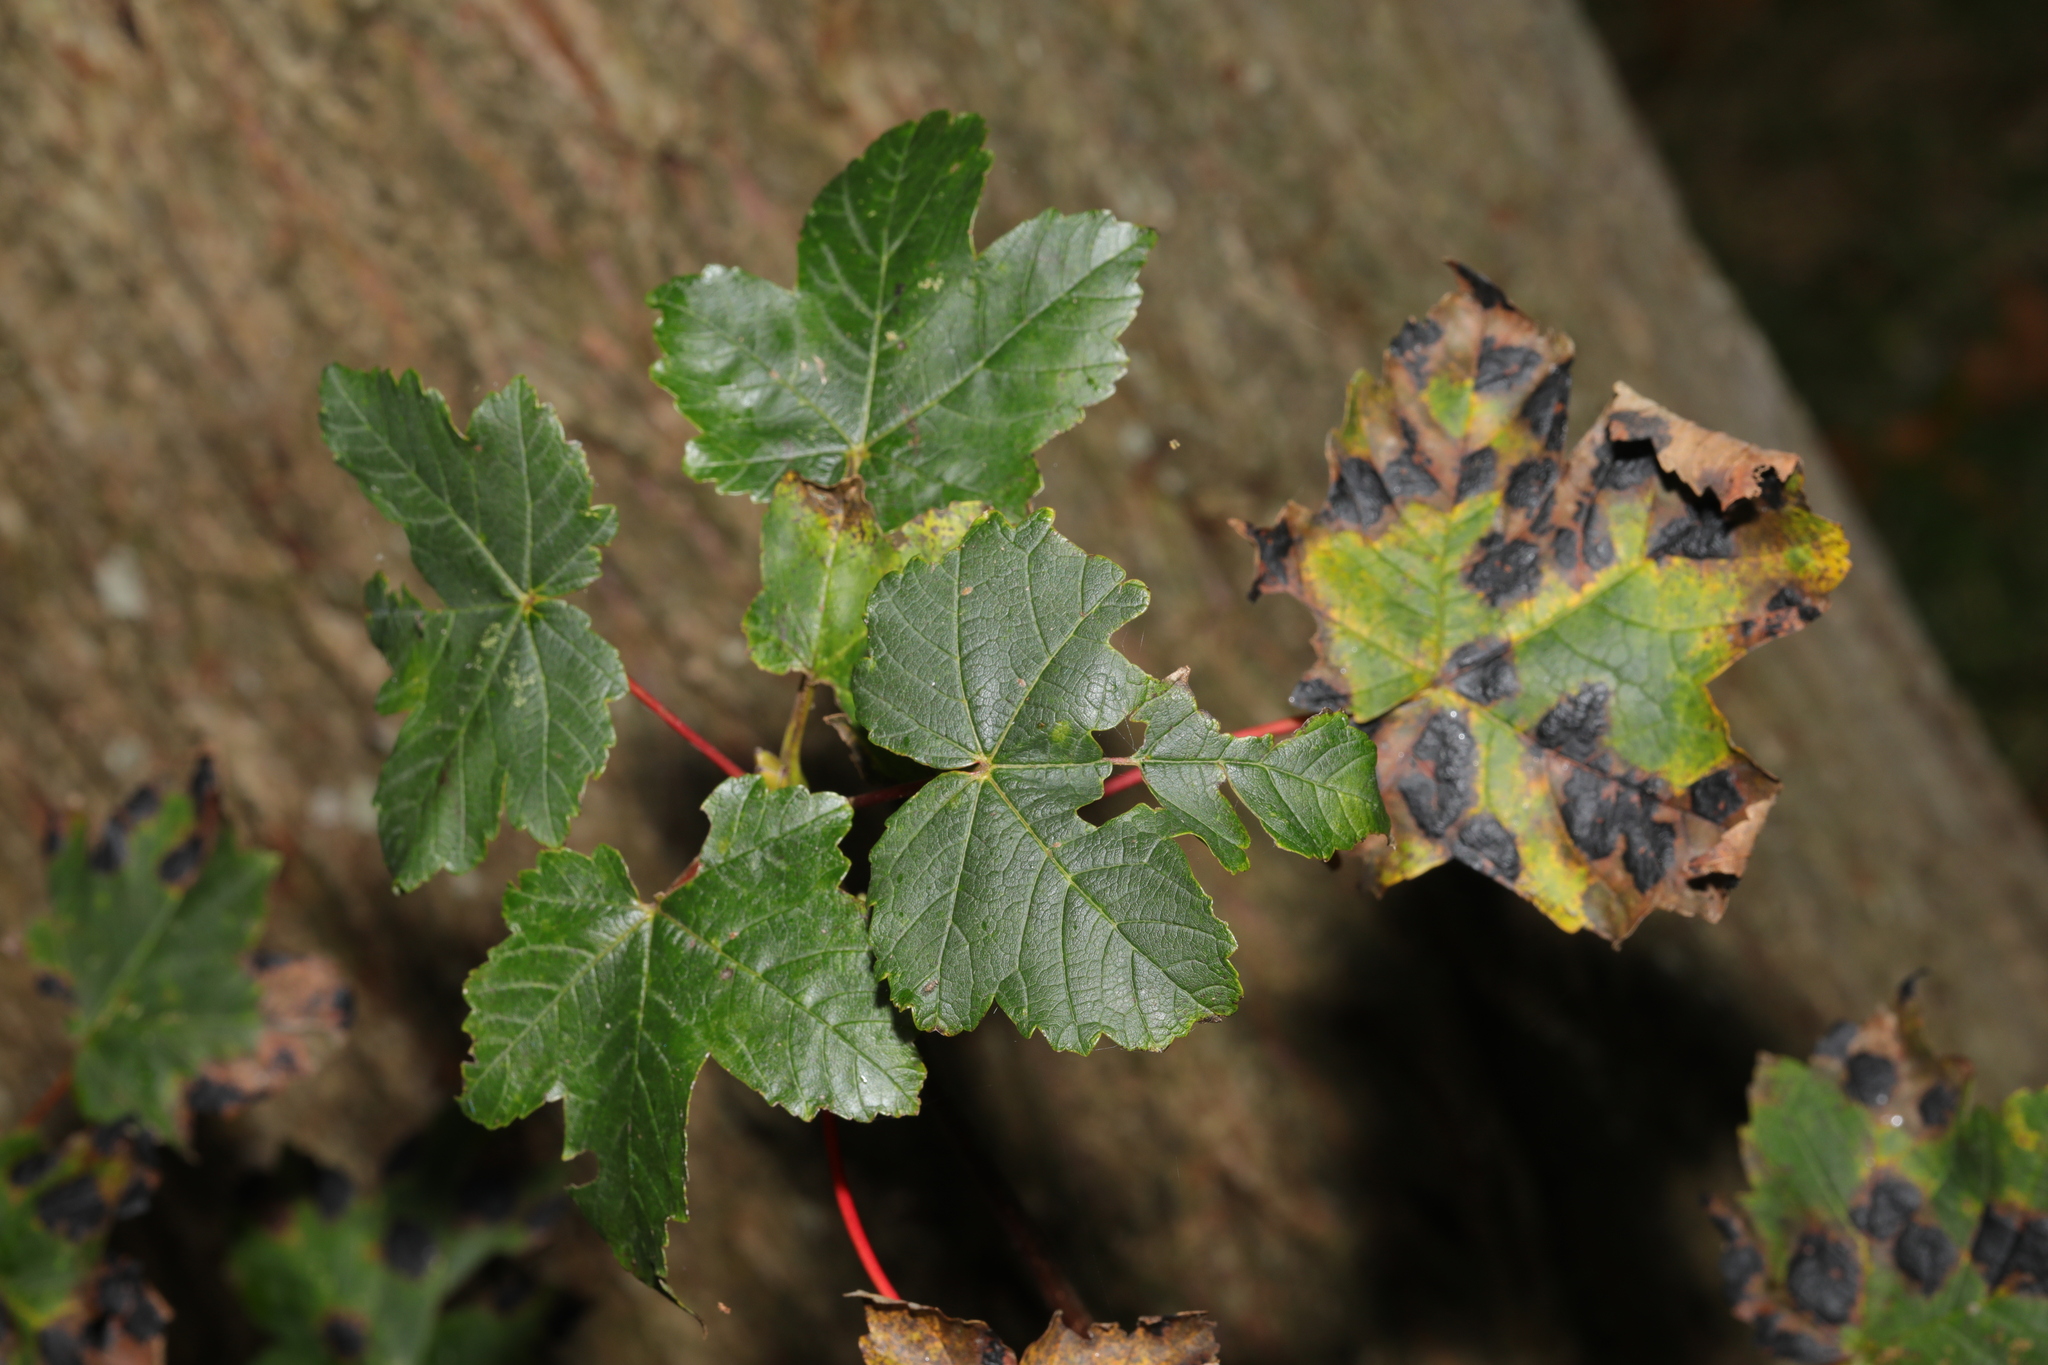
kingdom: Plantae
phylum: Tracheophyta
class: Magnoliopsida
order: Sapindales
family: Sapindaceae
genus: Acer
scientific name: Acer pseudoplatanus
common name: Sycamore
